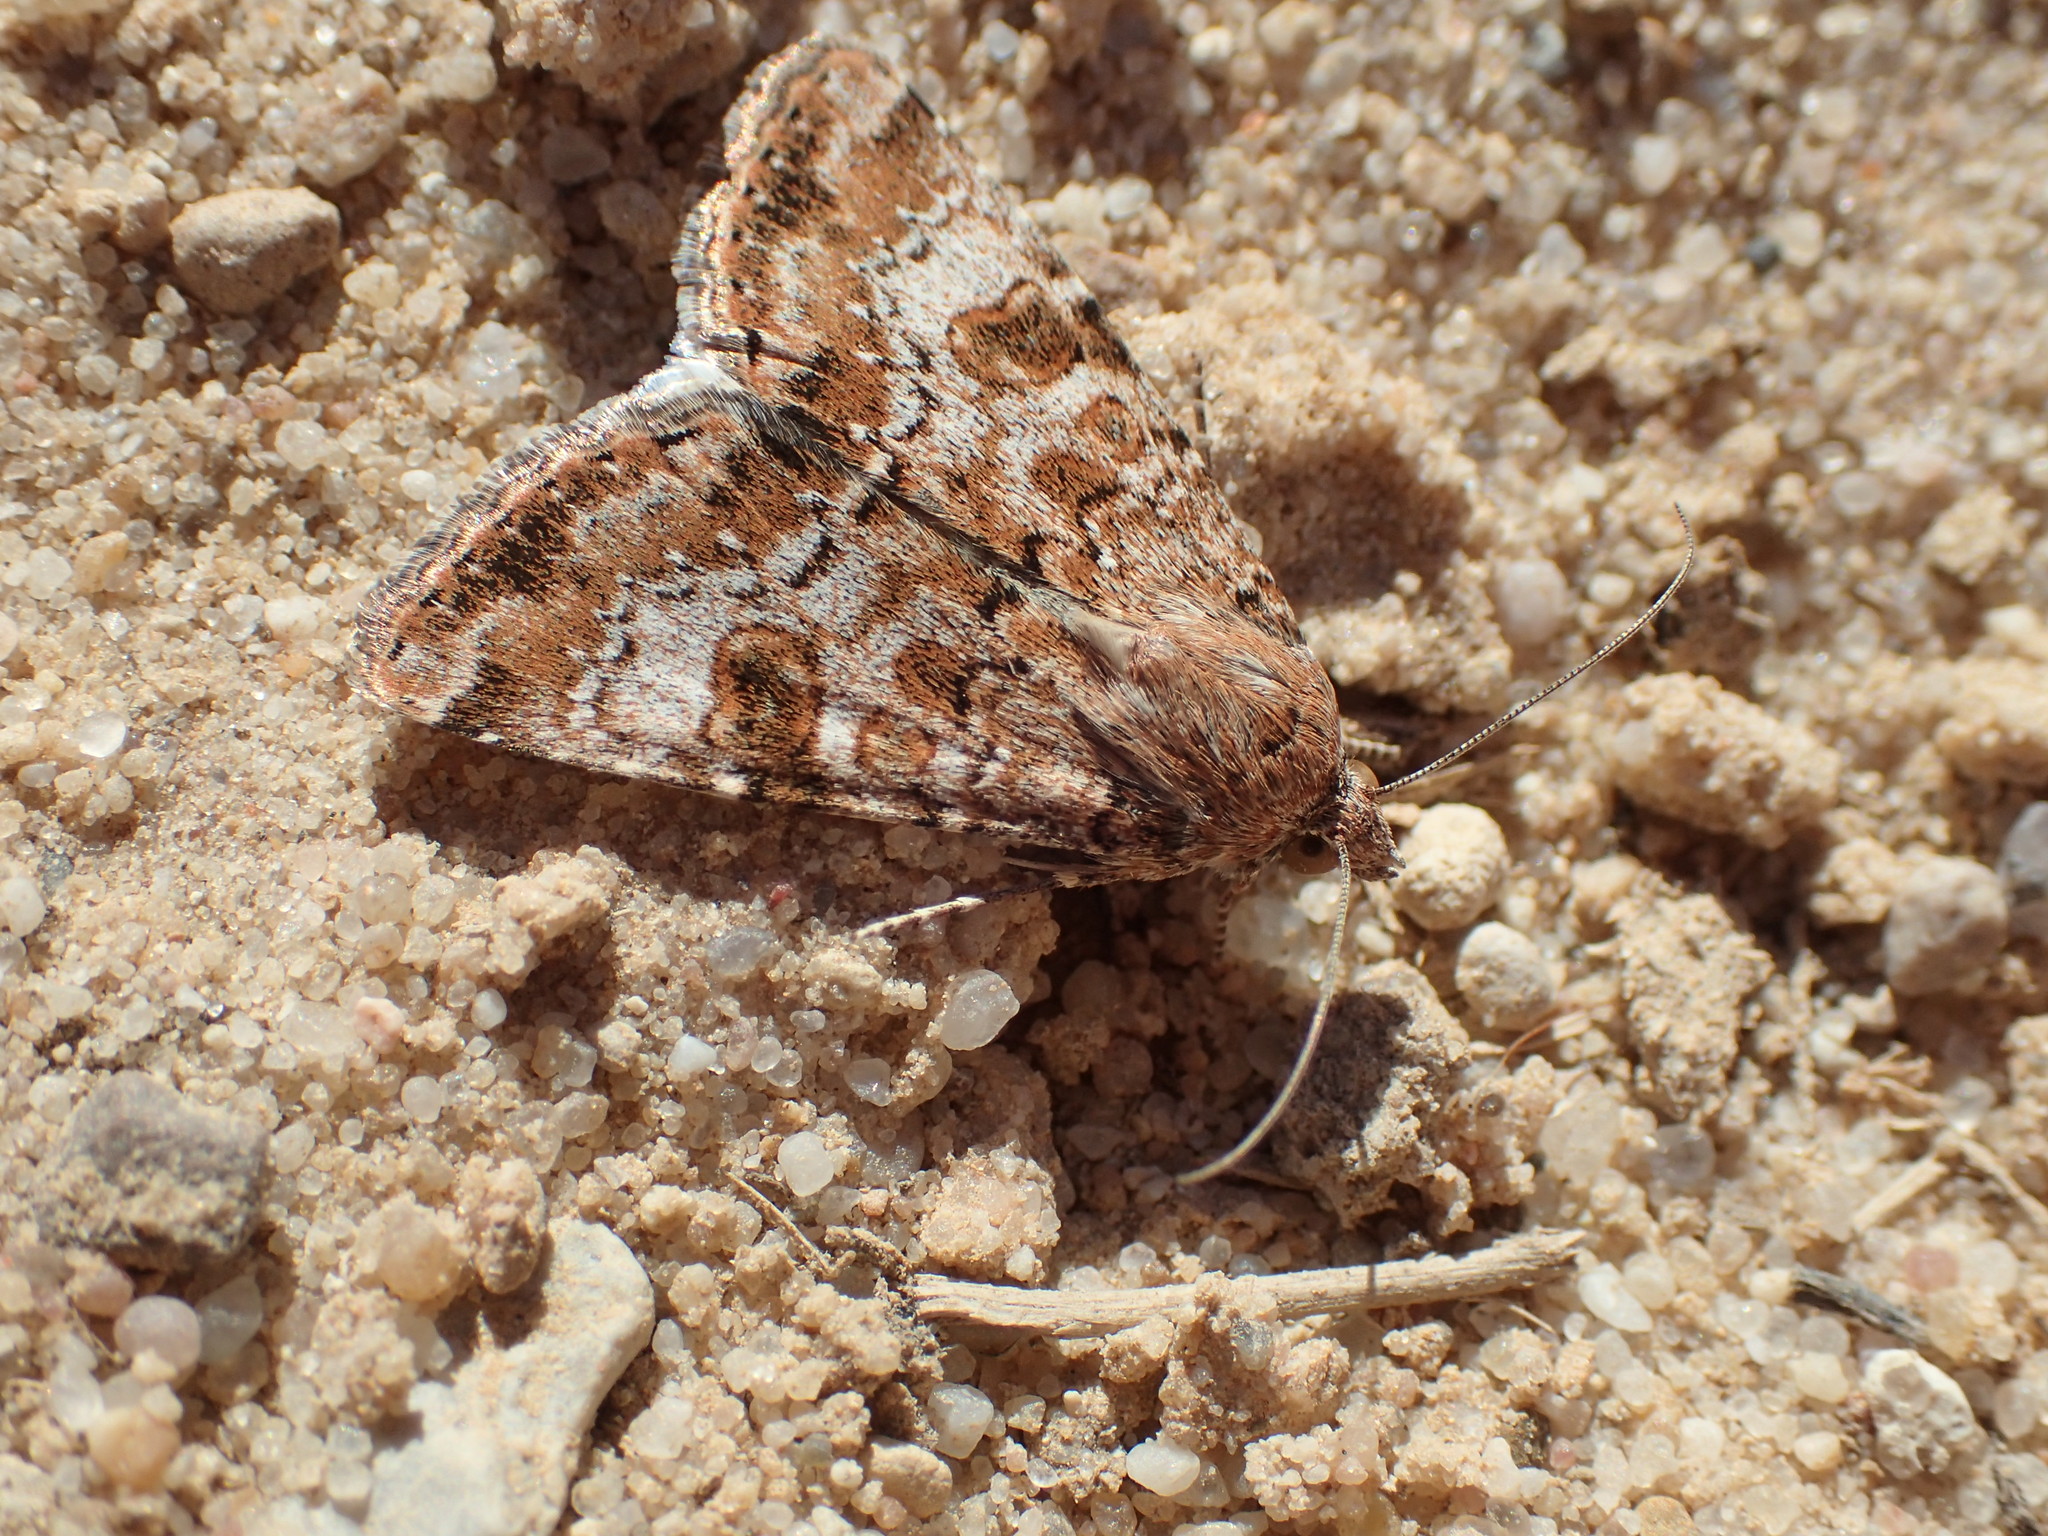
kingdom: Animalia
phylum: Arthropoda
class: Insecta
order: Lepidoptera
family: Noctuidae
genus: Heliothis
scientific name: Heliothis punctifera
